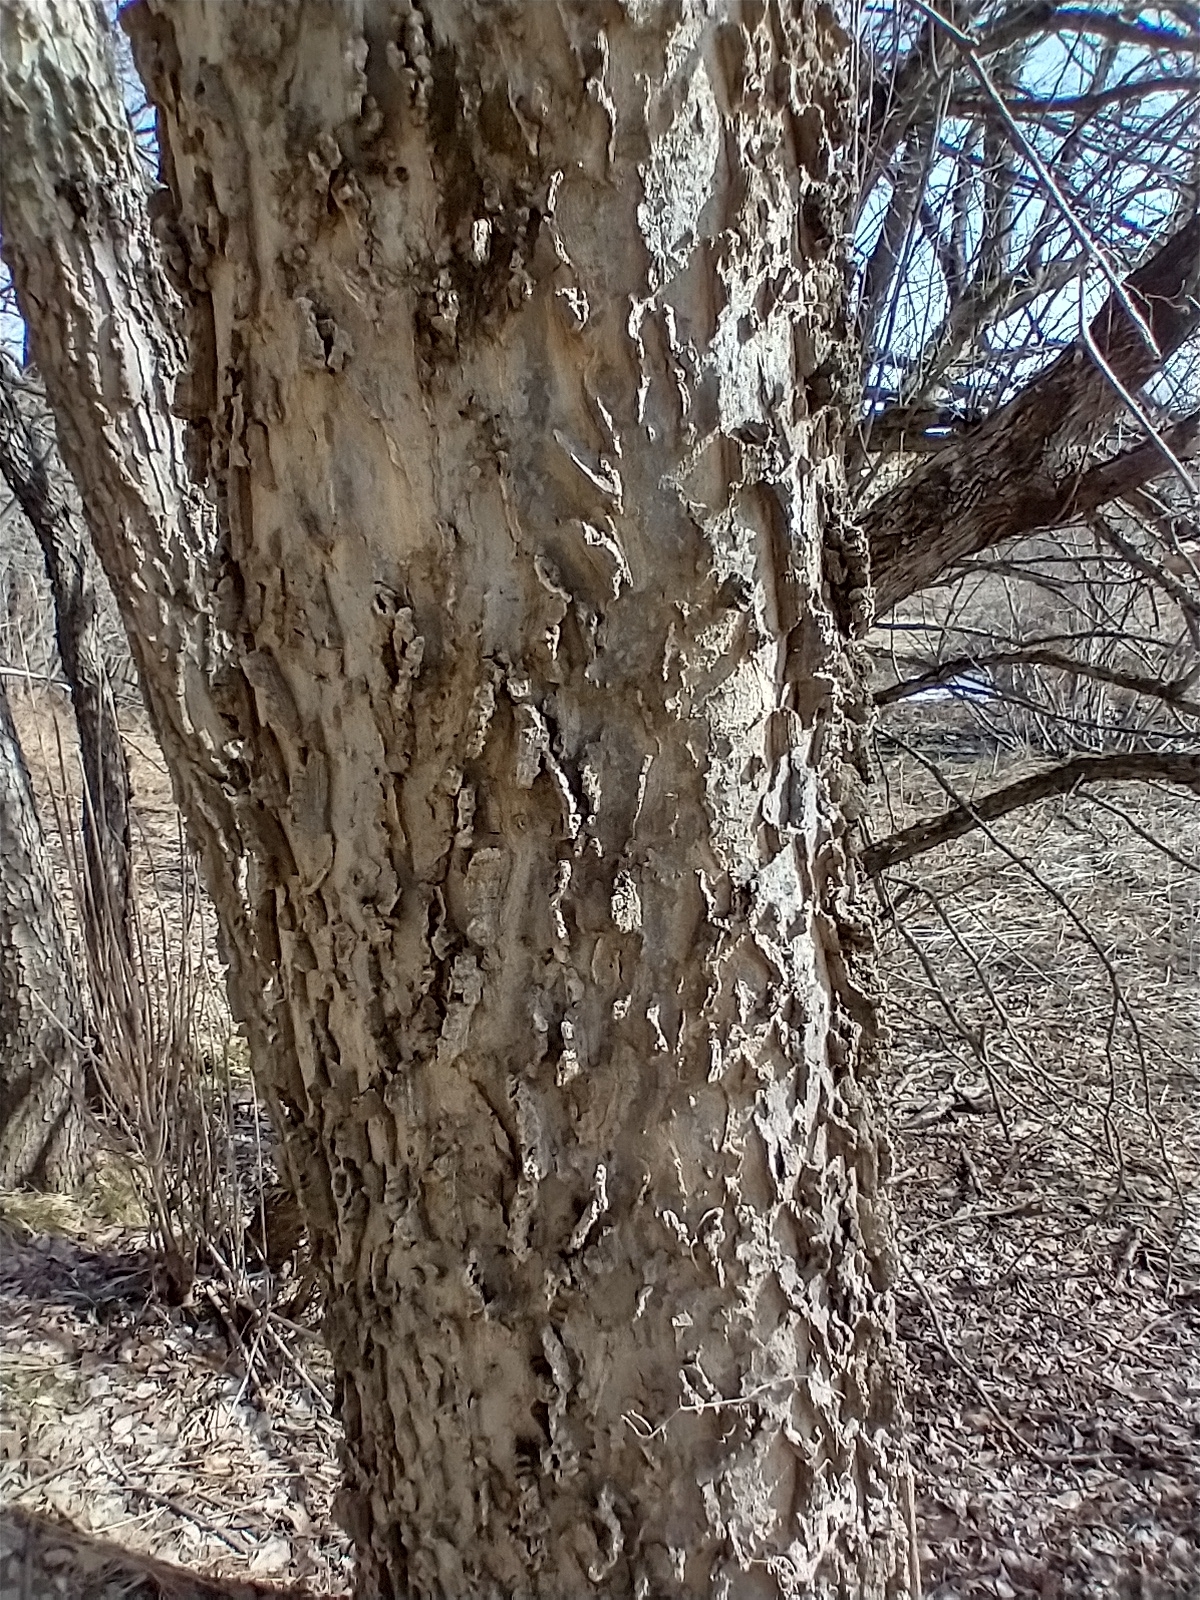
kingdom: Plantae
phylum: Tracheophyta
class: Magnoliopsida
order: Rosales
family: Cannabaceae
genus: Celtis
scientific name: Celtis occidentalis
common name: Common hackberry
